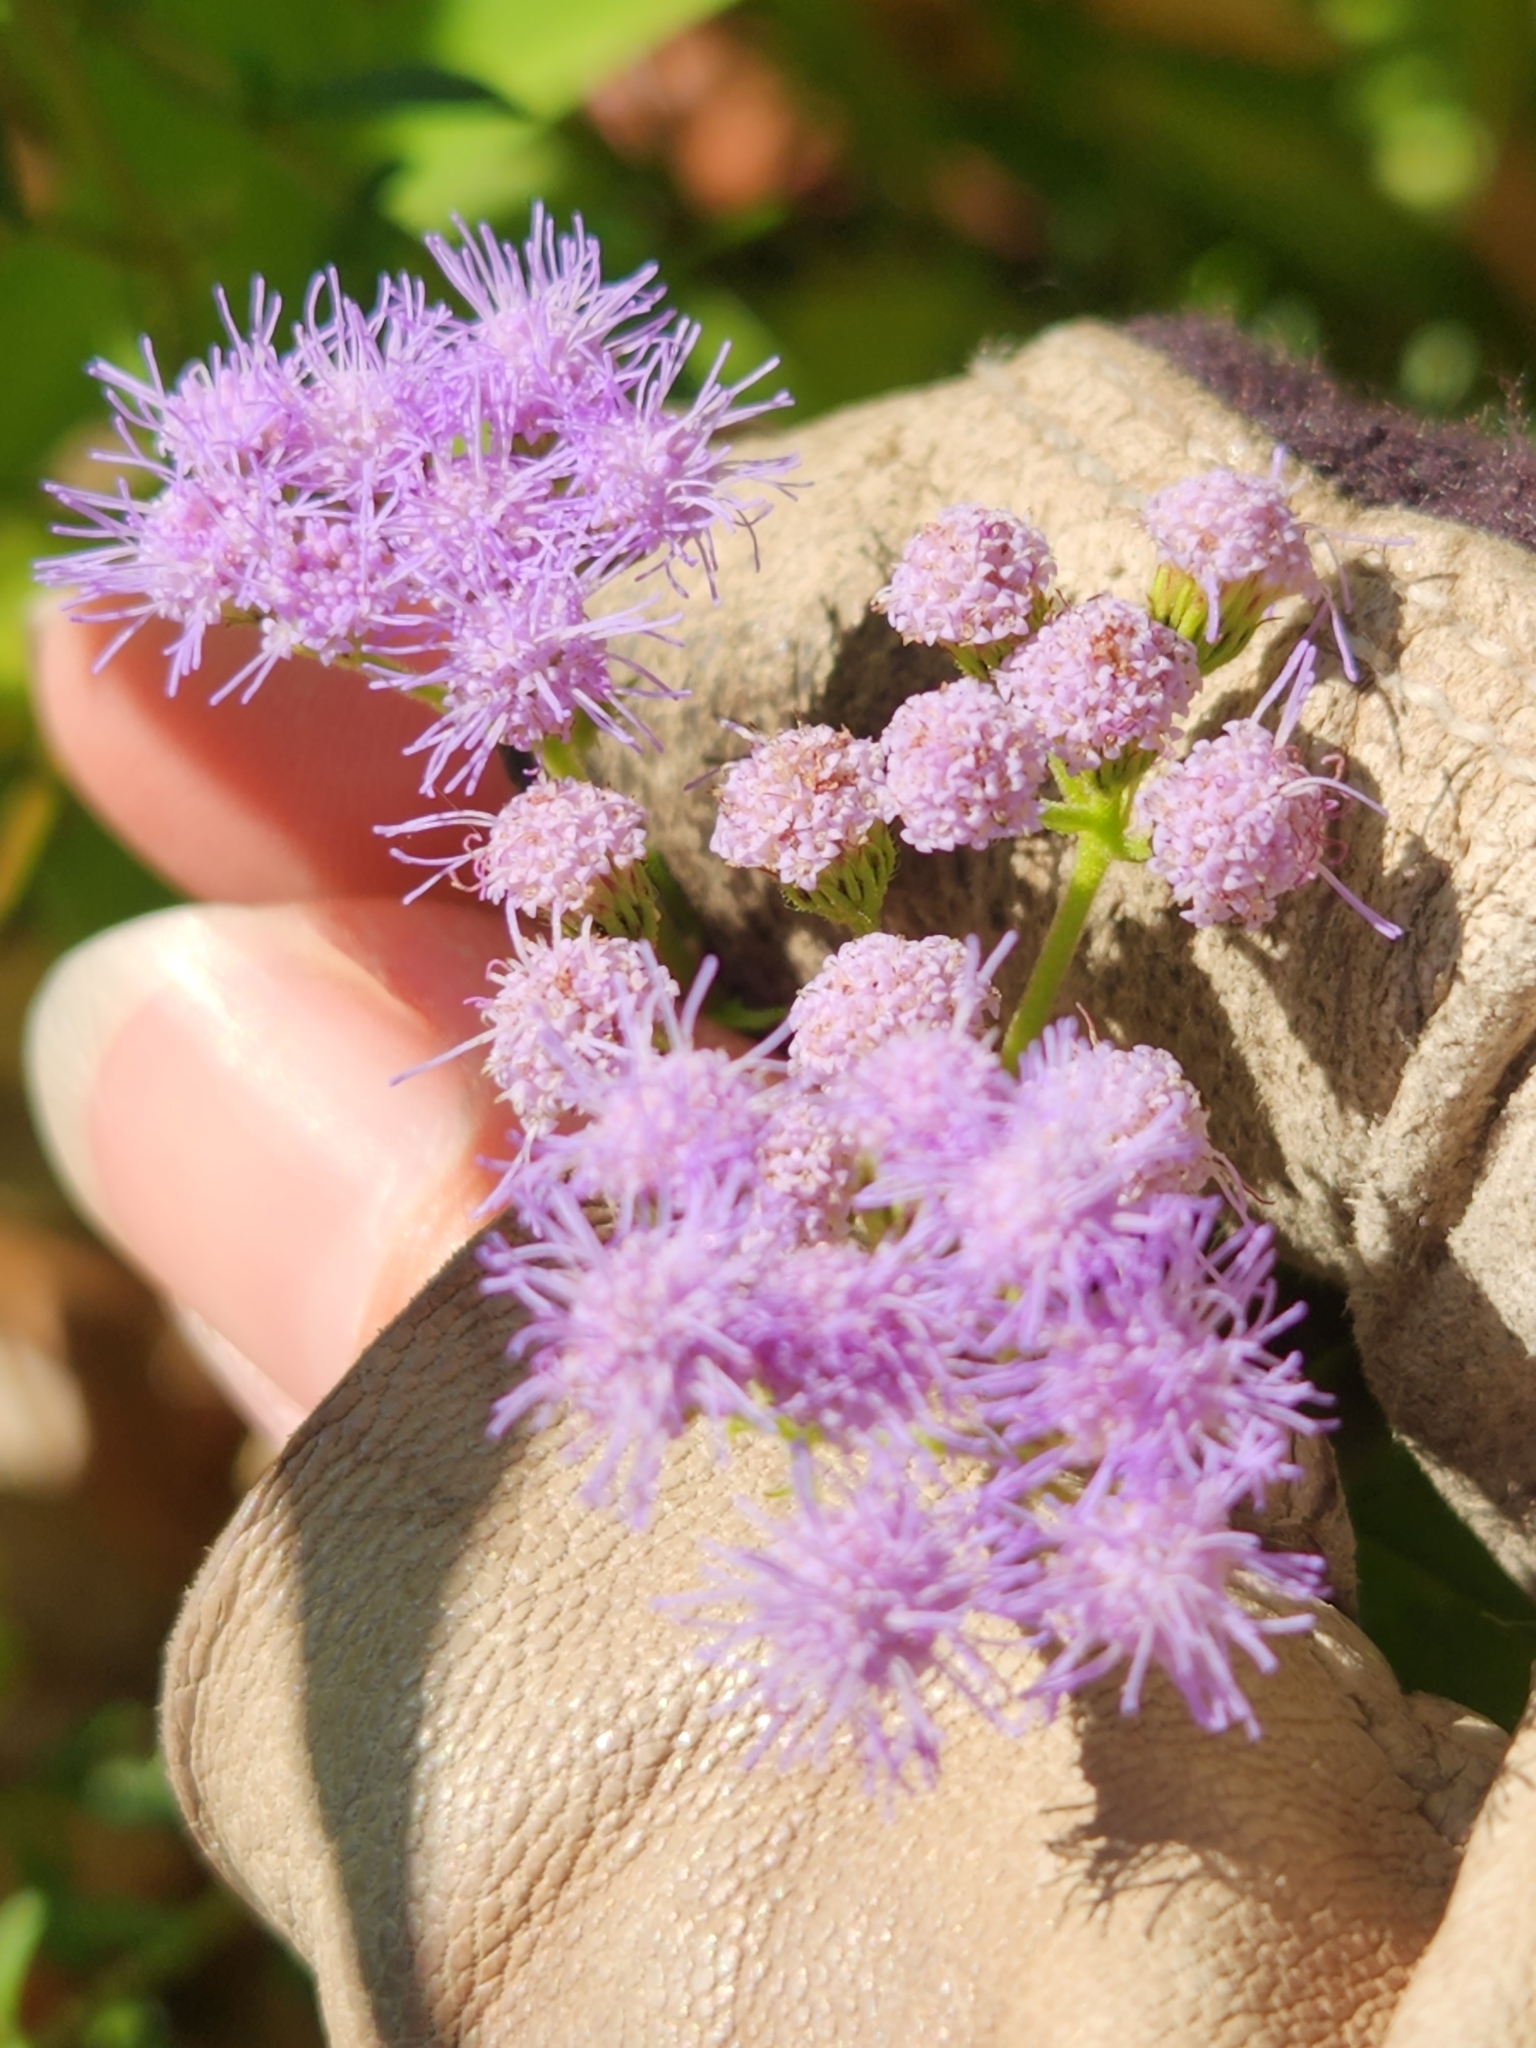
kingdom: Plantae
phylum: Tracheophyta
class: Magnoliopsida
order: Asterales
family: Asteraceae
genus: Conoclinium
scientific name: Conoclinium coelestinum
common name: Blue mistflower
